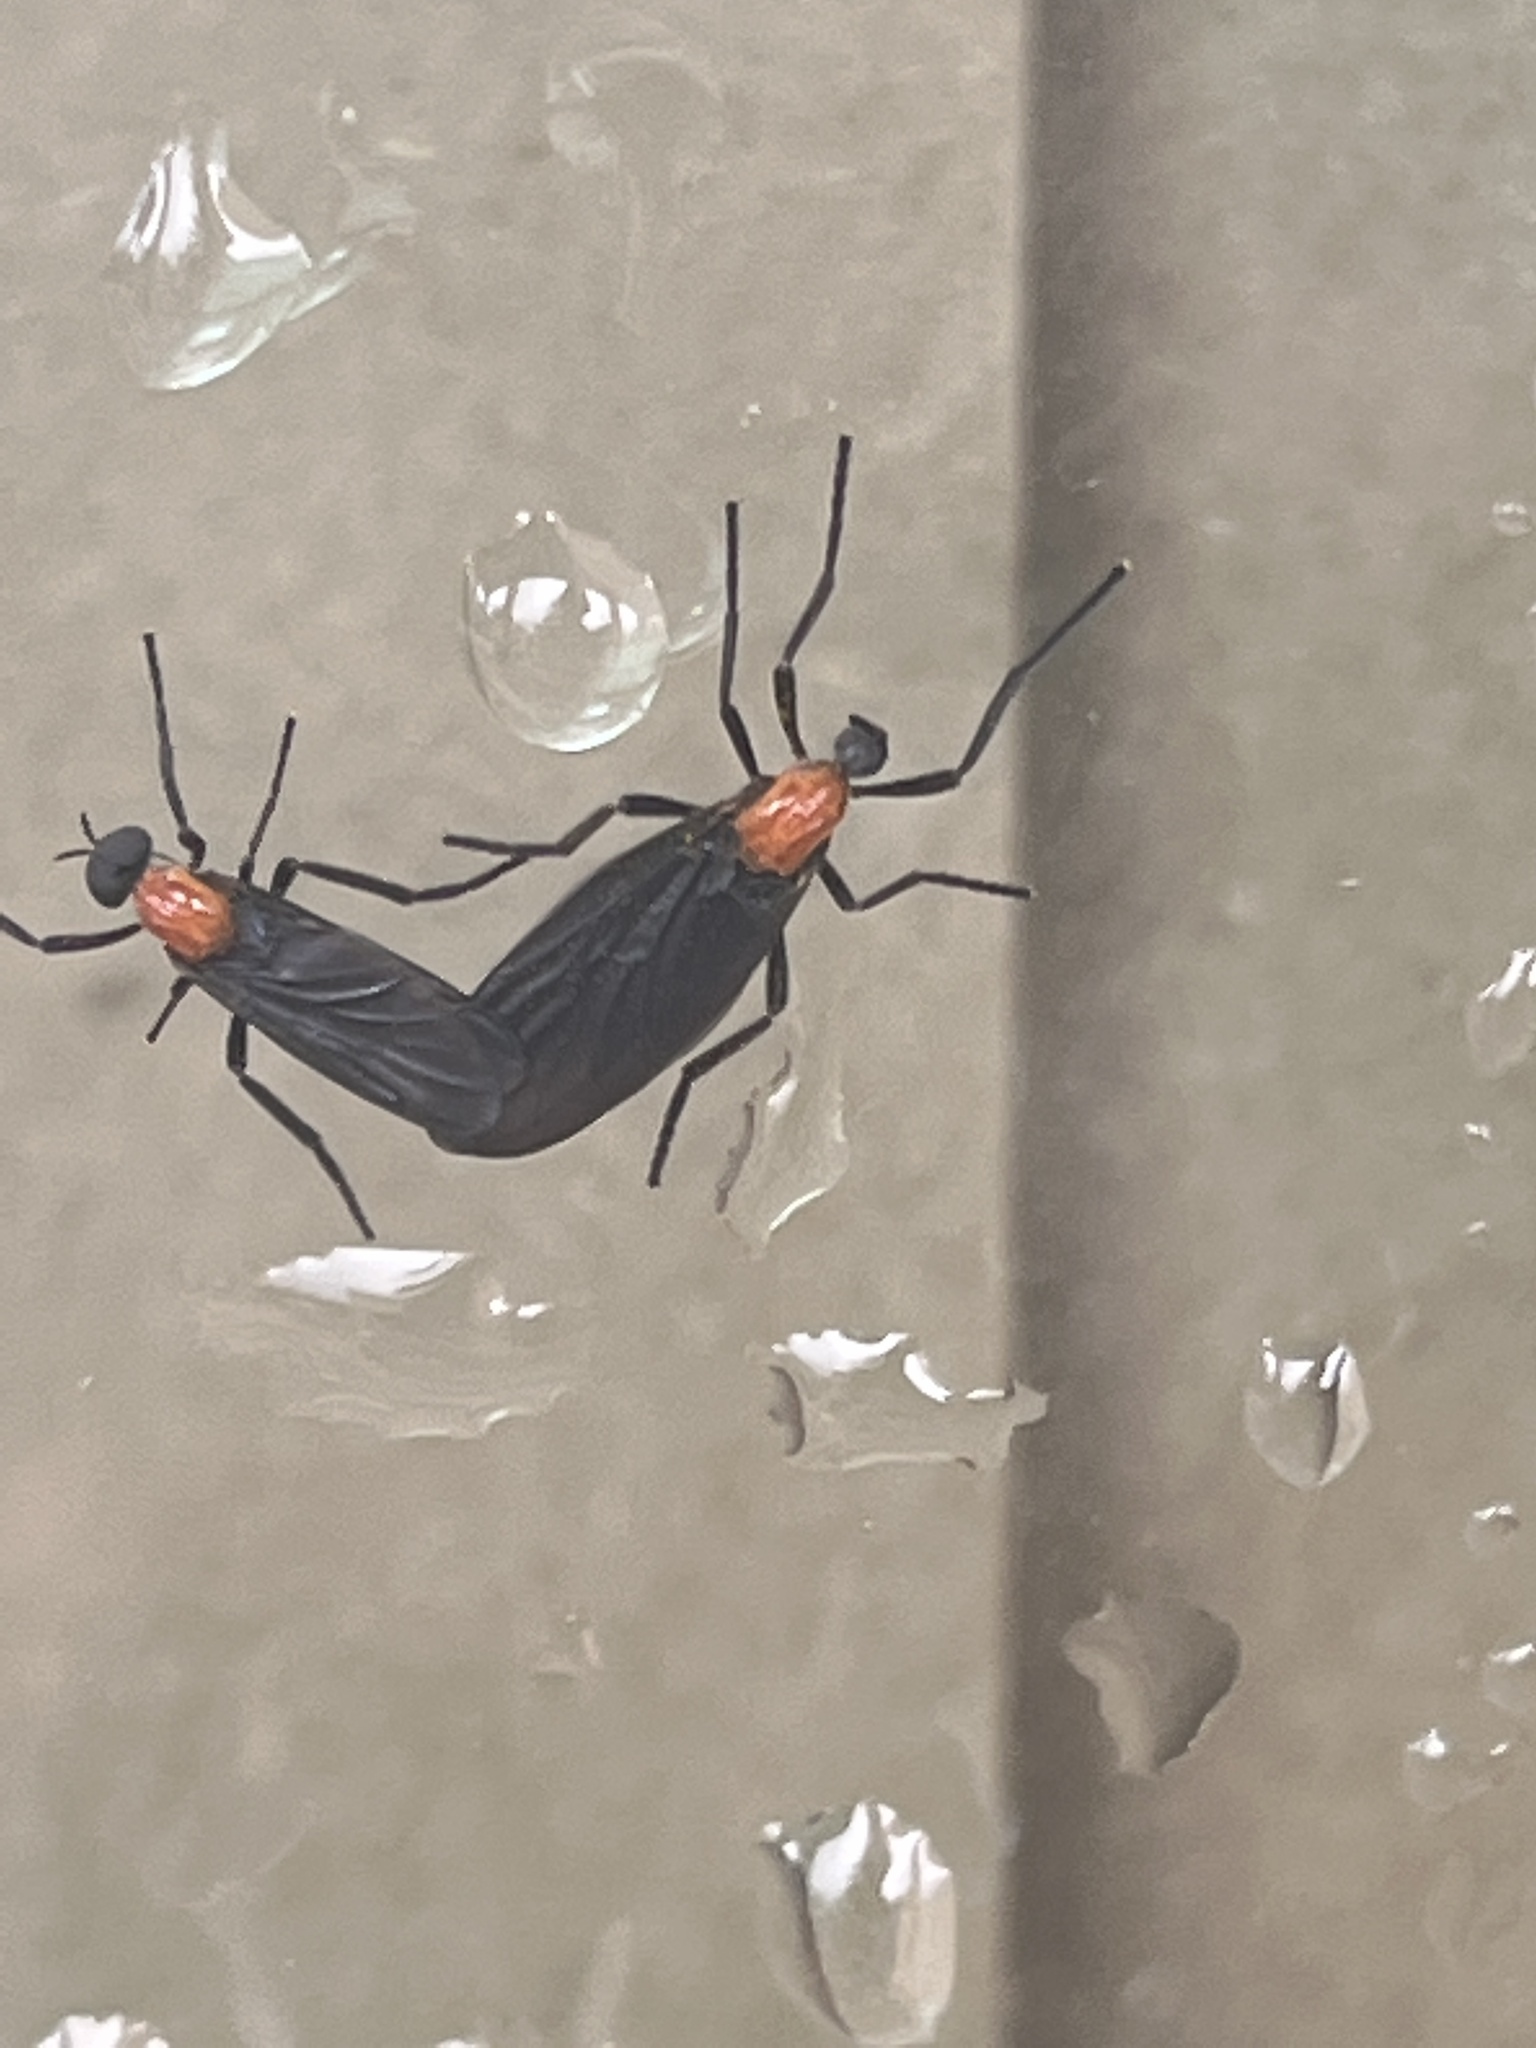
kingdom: Animalia
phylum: Arthropoda
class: Insecta
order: Diptera
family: Bibionidae
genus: Plecia
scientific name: Plecia nearctica
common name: March fly
